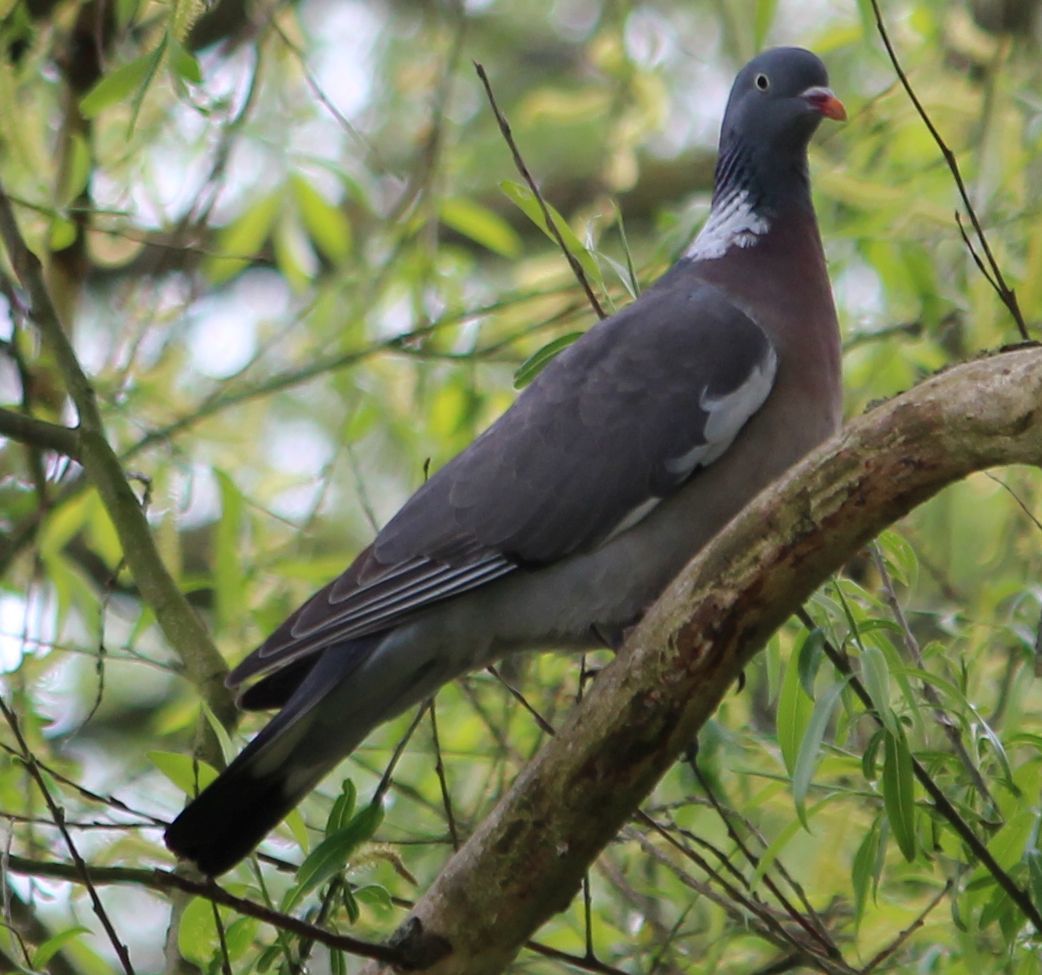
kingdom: Animalia
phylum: Chordata
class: Aves
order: Columbiformes
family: Columbidae
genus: Columba
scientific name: Columba palumbus
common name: Common wood pigeon
